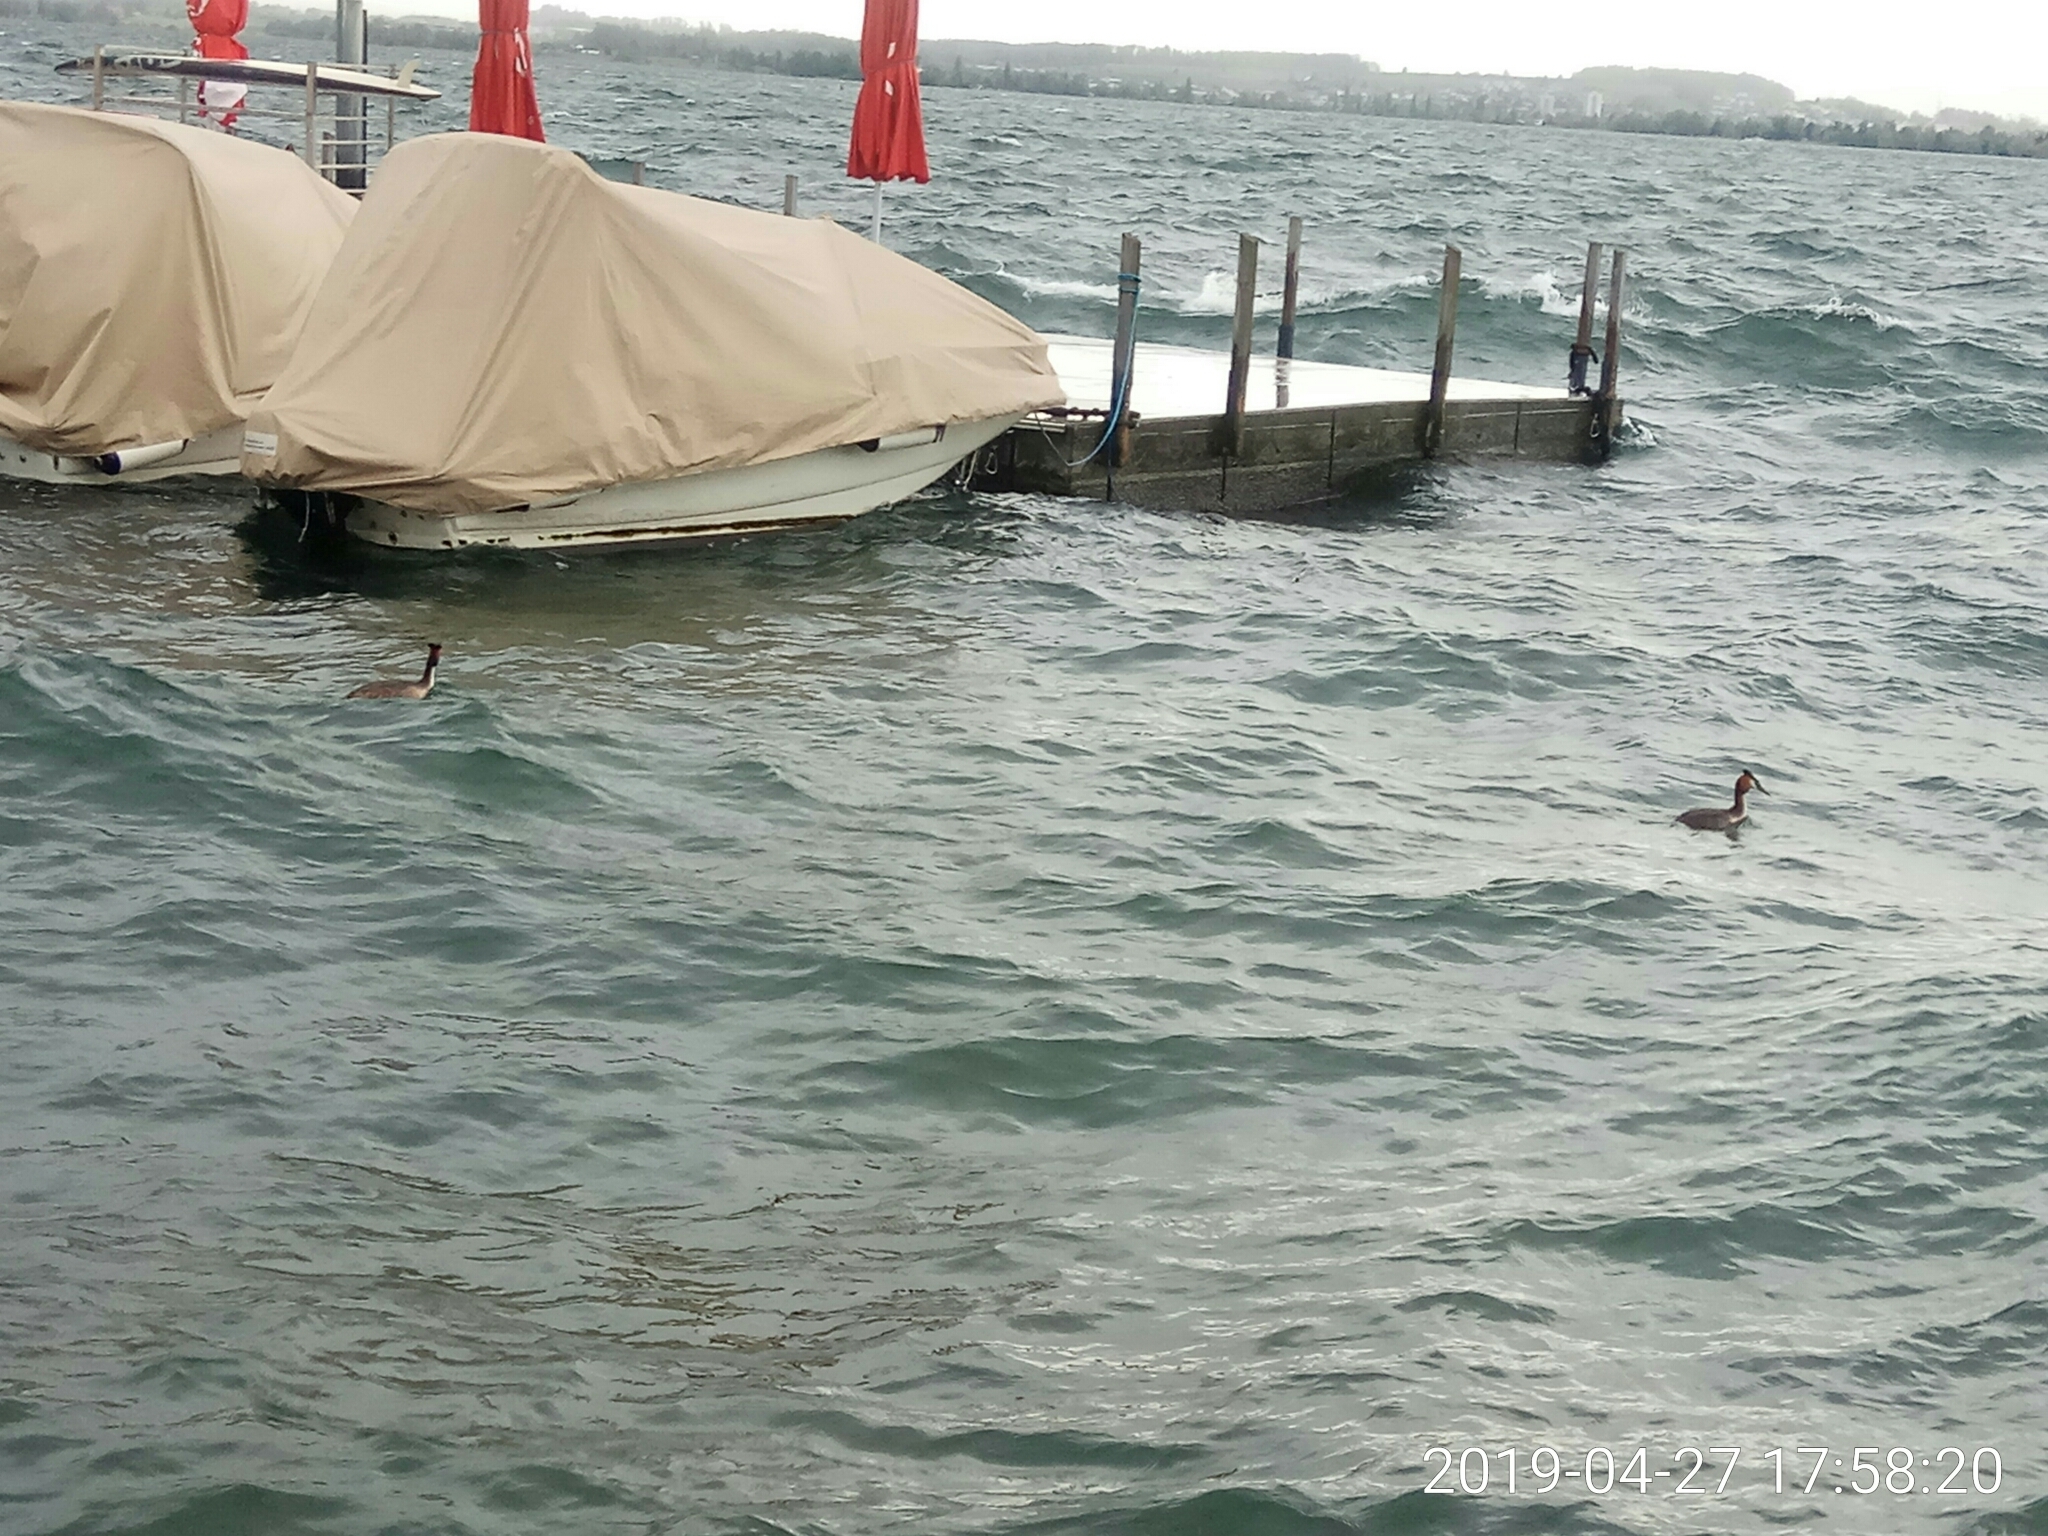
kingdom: Animalia
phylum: Chordata
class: Aves
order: Podicipediformes
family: Podicipedidae
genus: Podiceps
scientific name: Podiceps cristatus
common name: Great crested grebe
